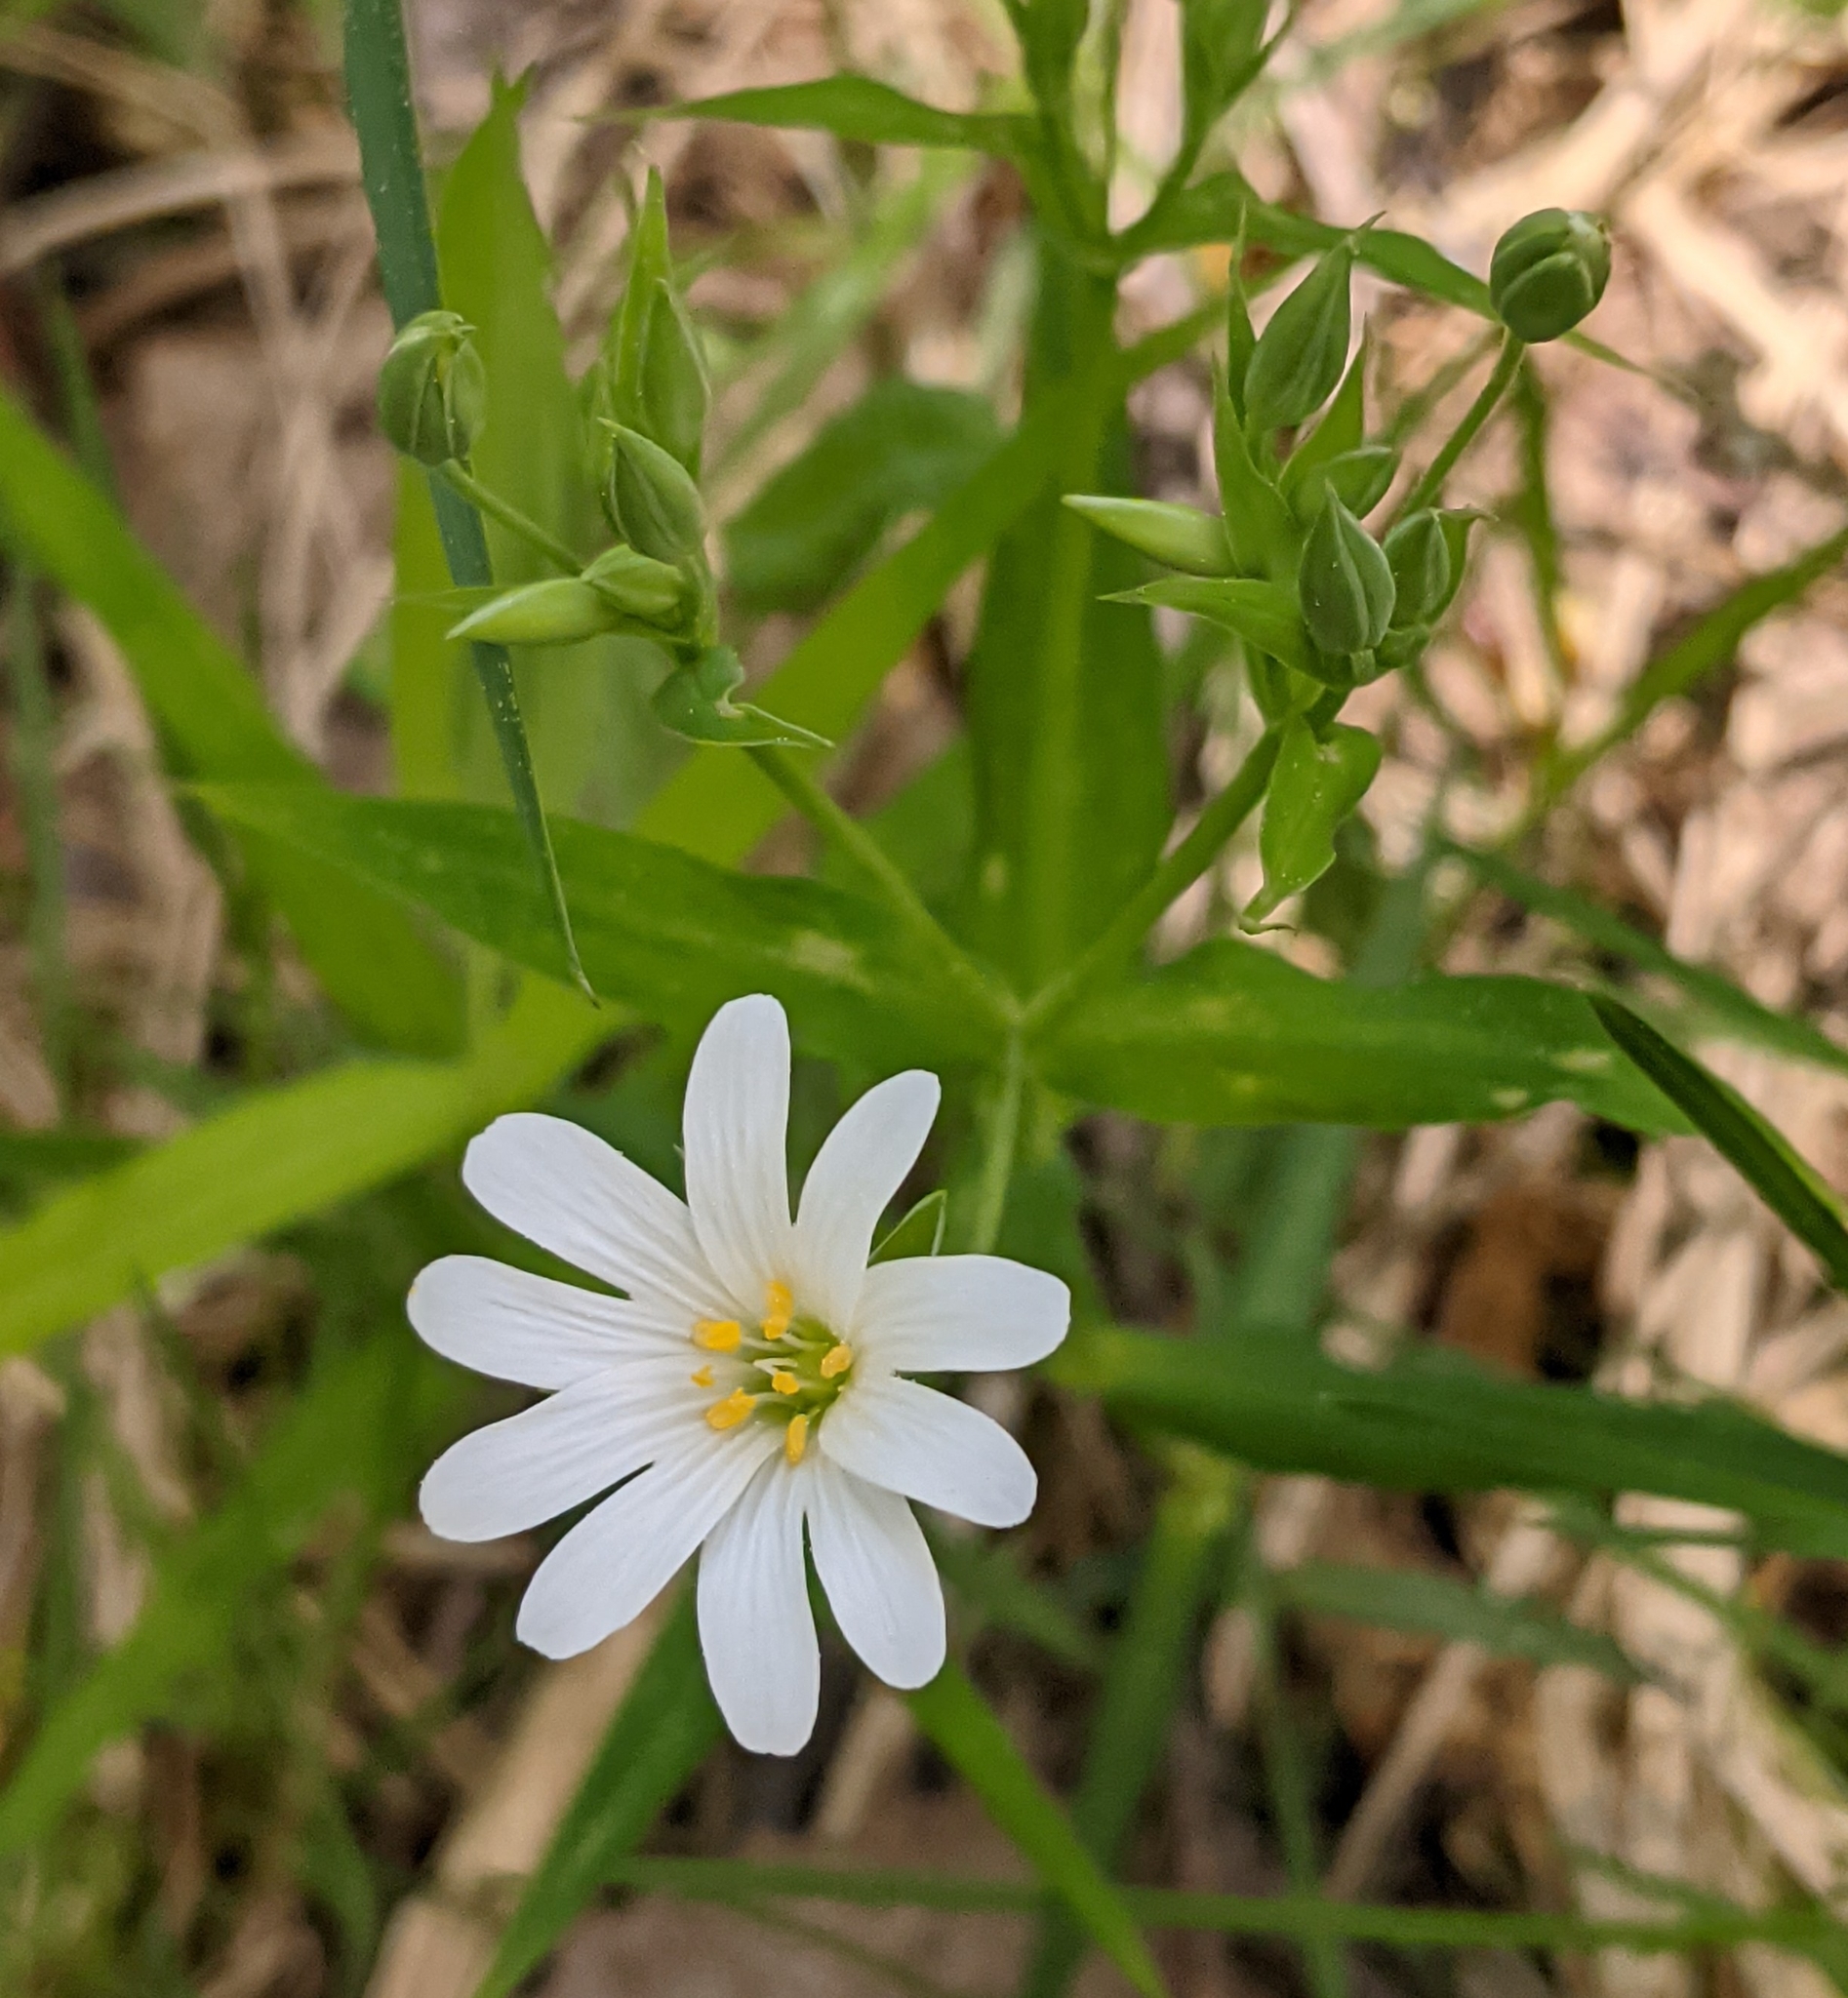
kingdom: Plantae
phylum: Tracheophyta
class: Magnoliopsida
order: Caryophyllales
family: Caryophyllaceae
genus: Rabelera
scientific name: Rabelera holostea
